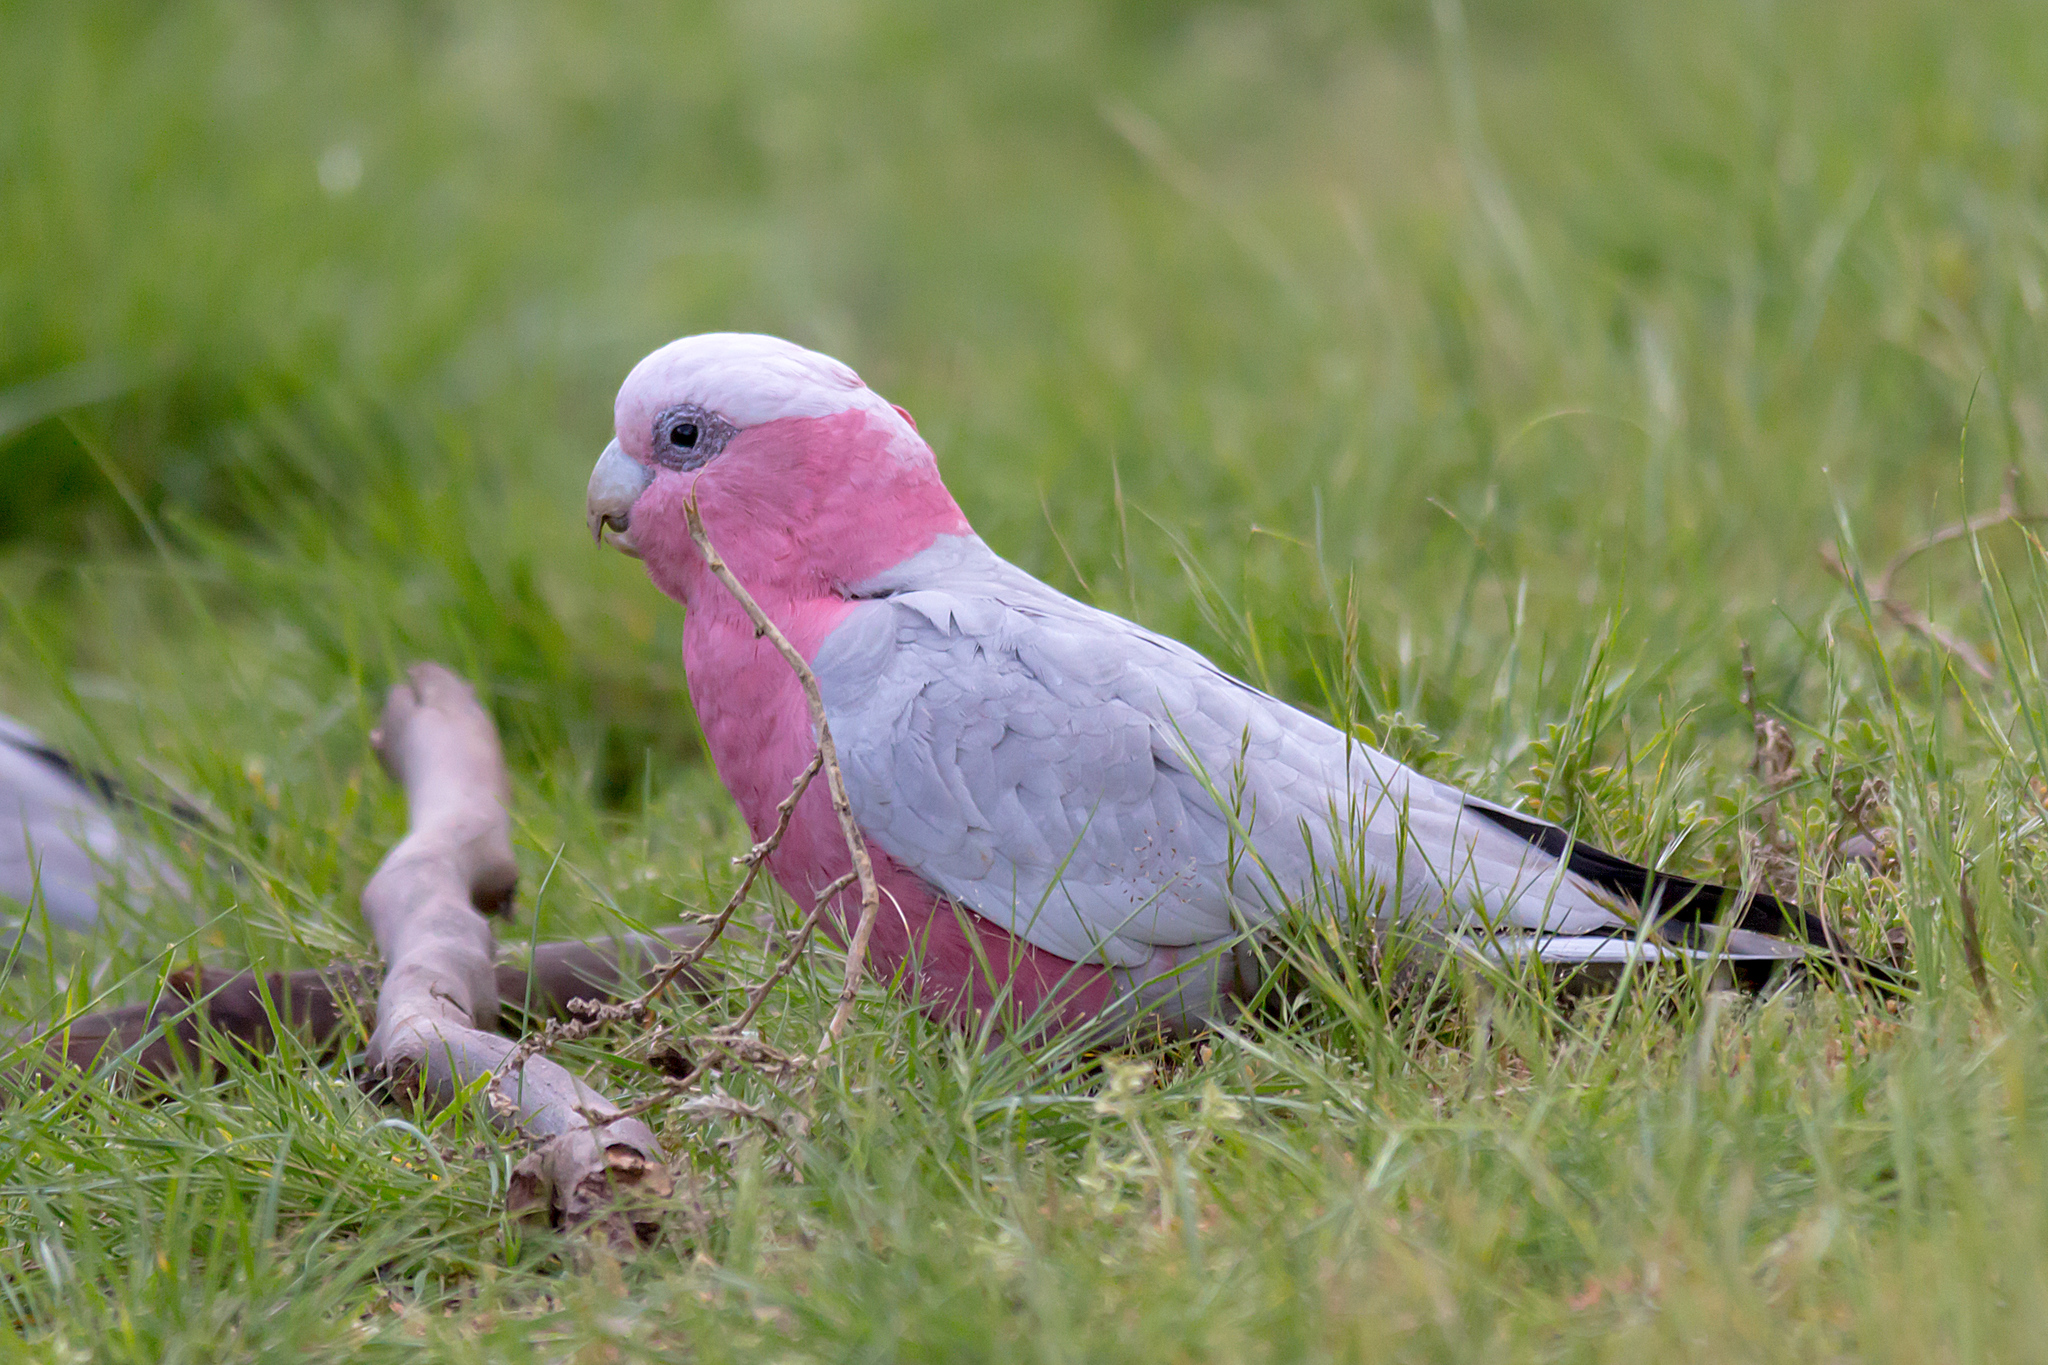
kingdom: Animalia
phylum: Chordata
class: Aves
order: Psittaciformes
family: Psittacidae
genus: Eolophus
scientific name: Eolophus roseicapilla
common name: Galah
